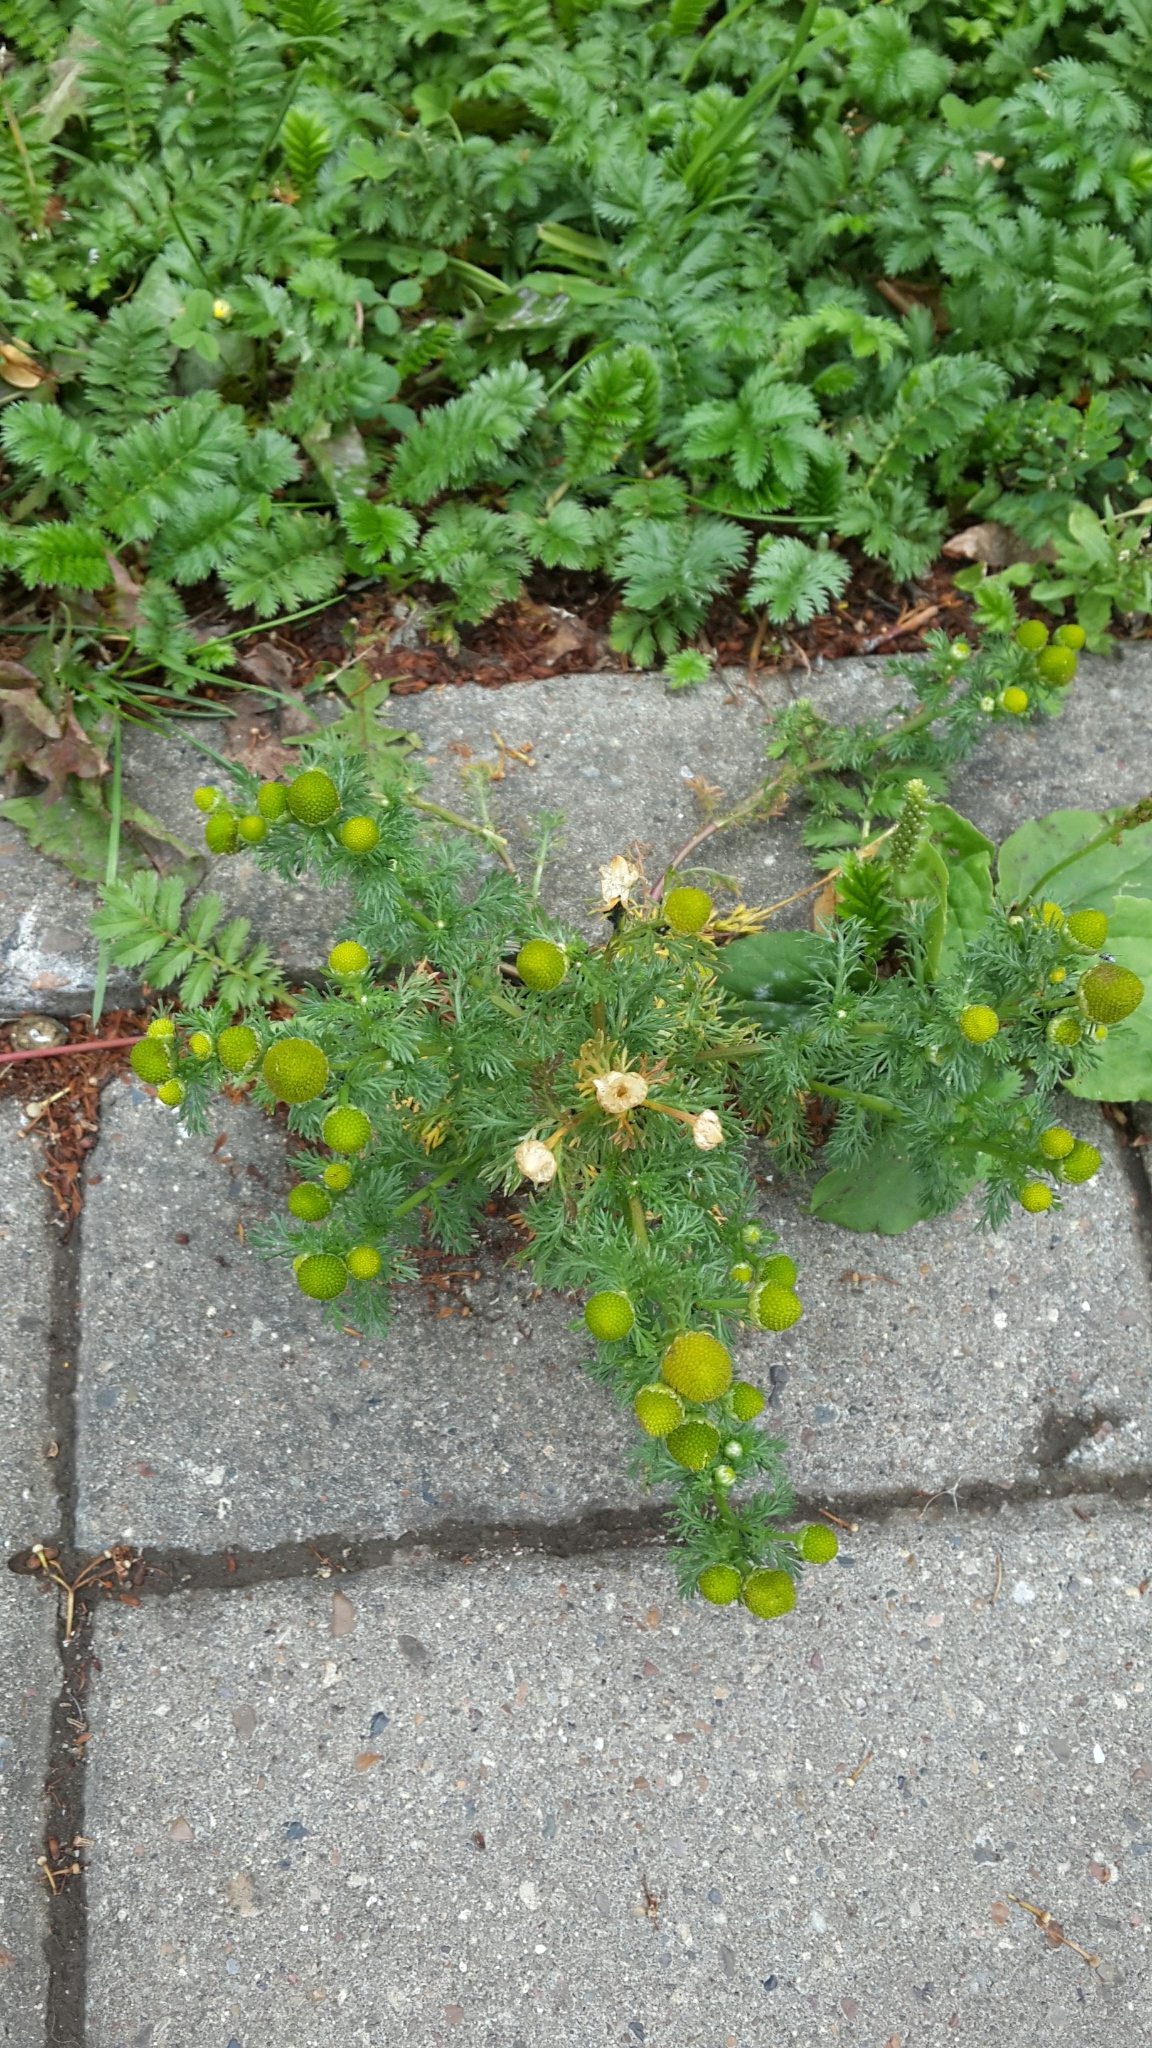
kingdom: Plantae
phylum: Tracheophyta
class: Magnoliopsida
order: Asterales
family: Asteraceae
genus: Matricaria
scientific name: Matricaria discoidea
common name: Disc mayweed
